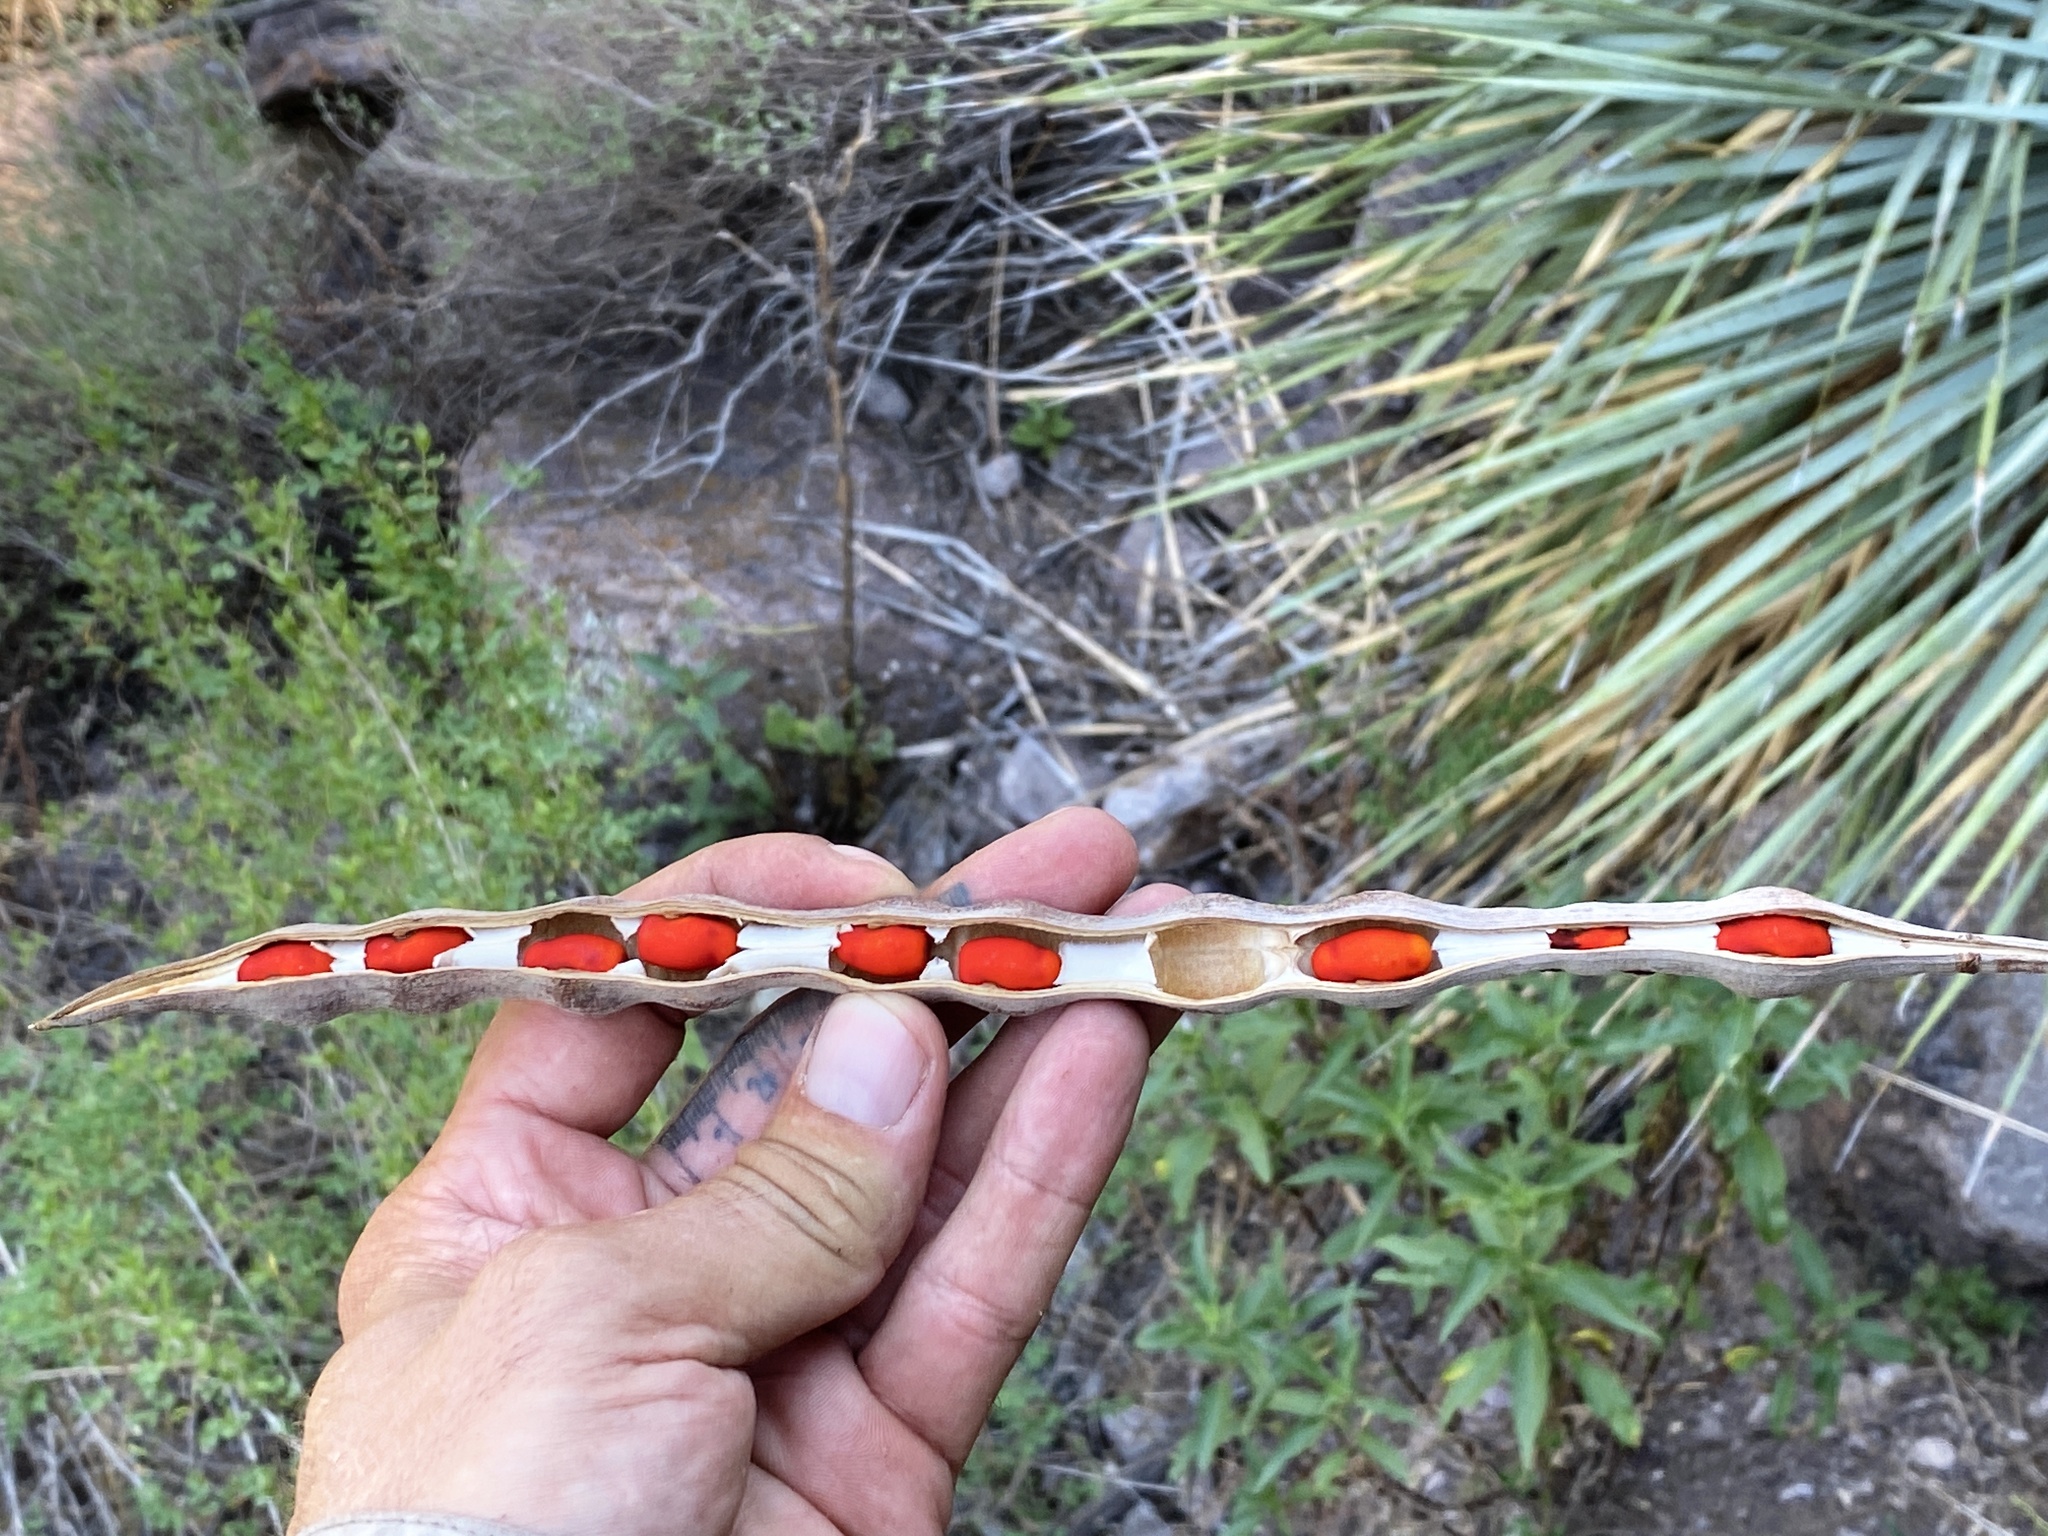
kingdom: Plantae
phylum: Tracheophyta
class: Magnoliopsida
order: Fabales
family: Fabaceae
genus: Erythrina
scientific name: Erythrina flabelliformis
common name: Chilicote
